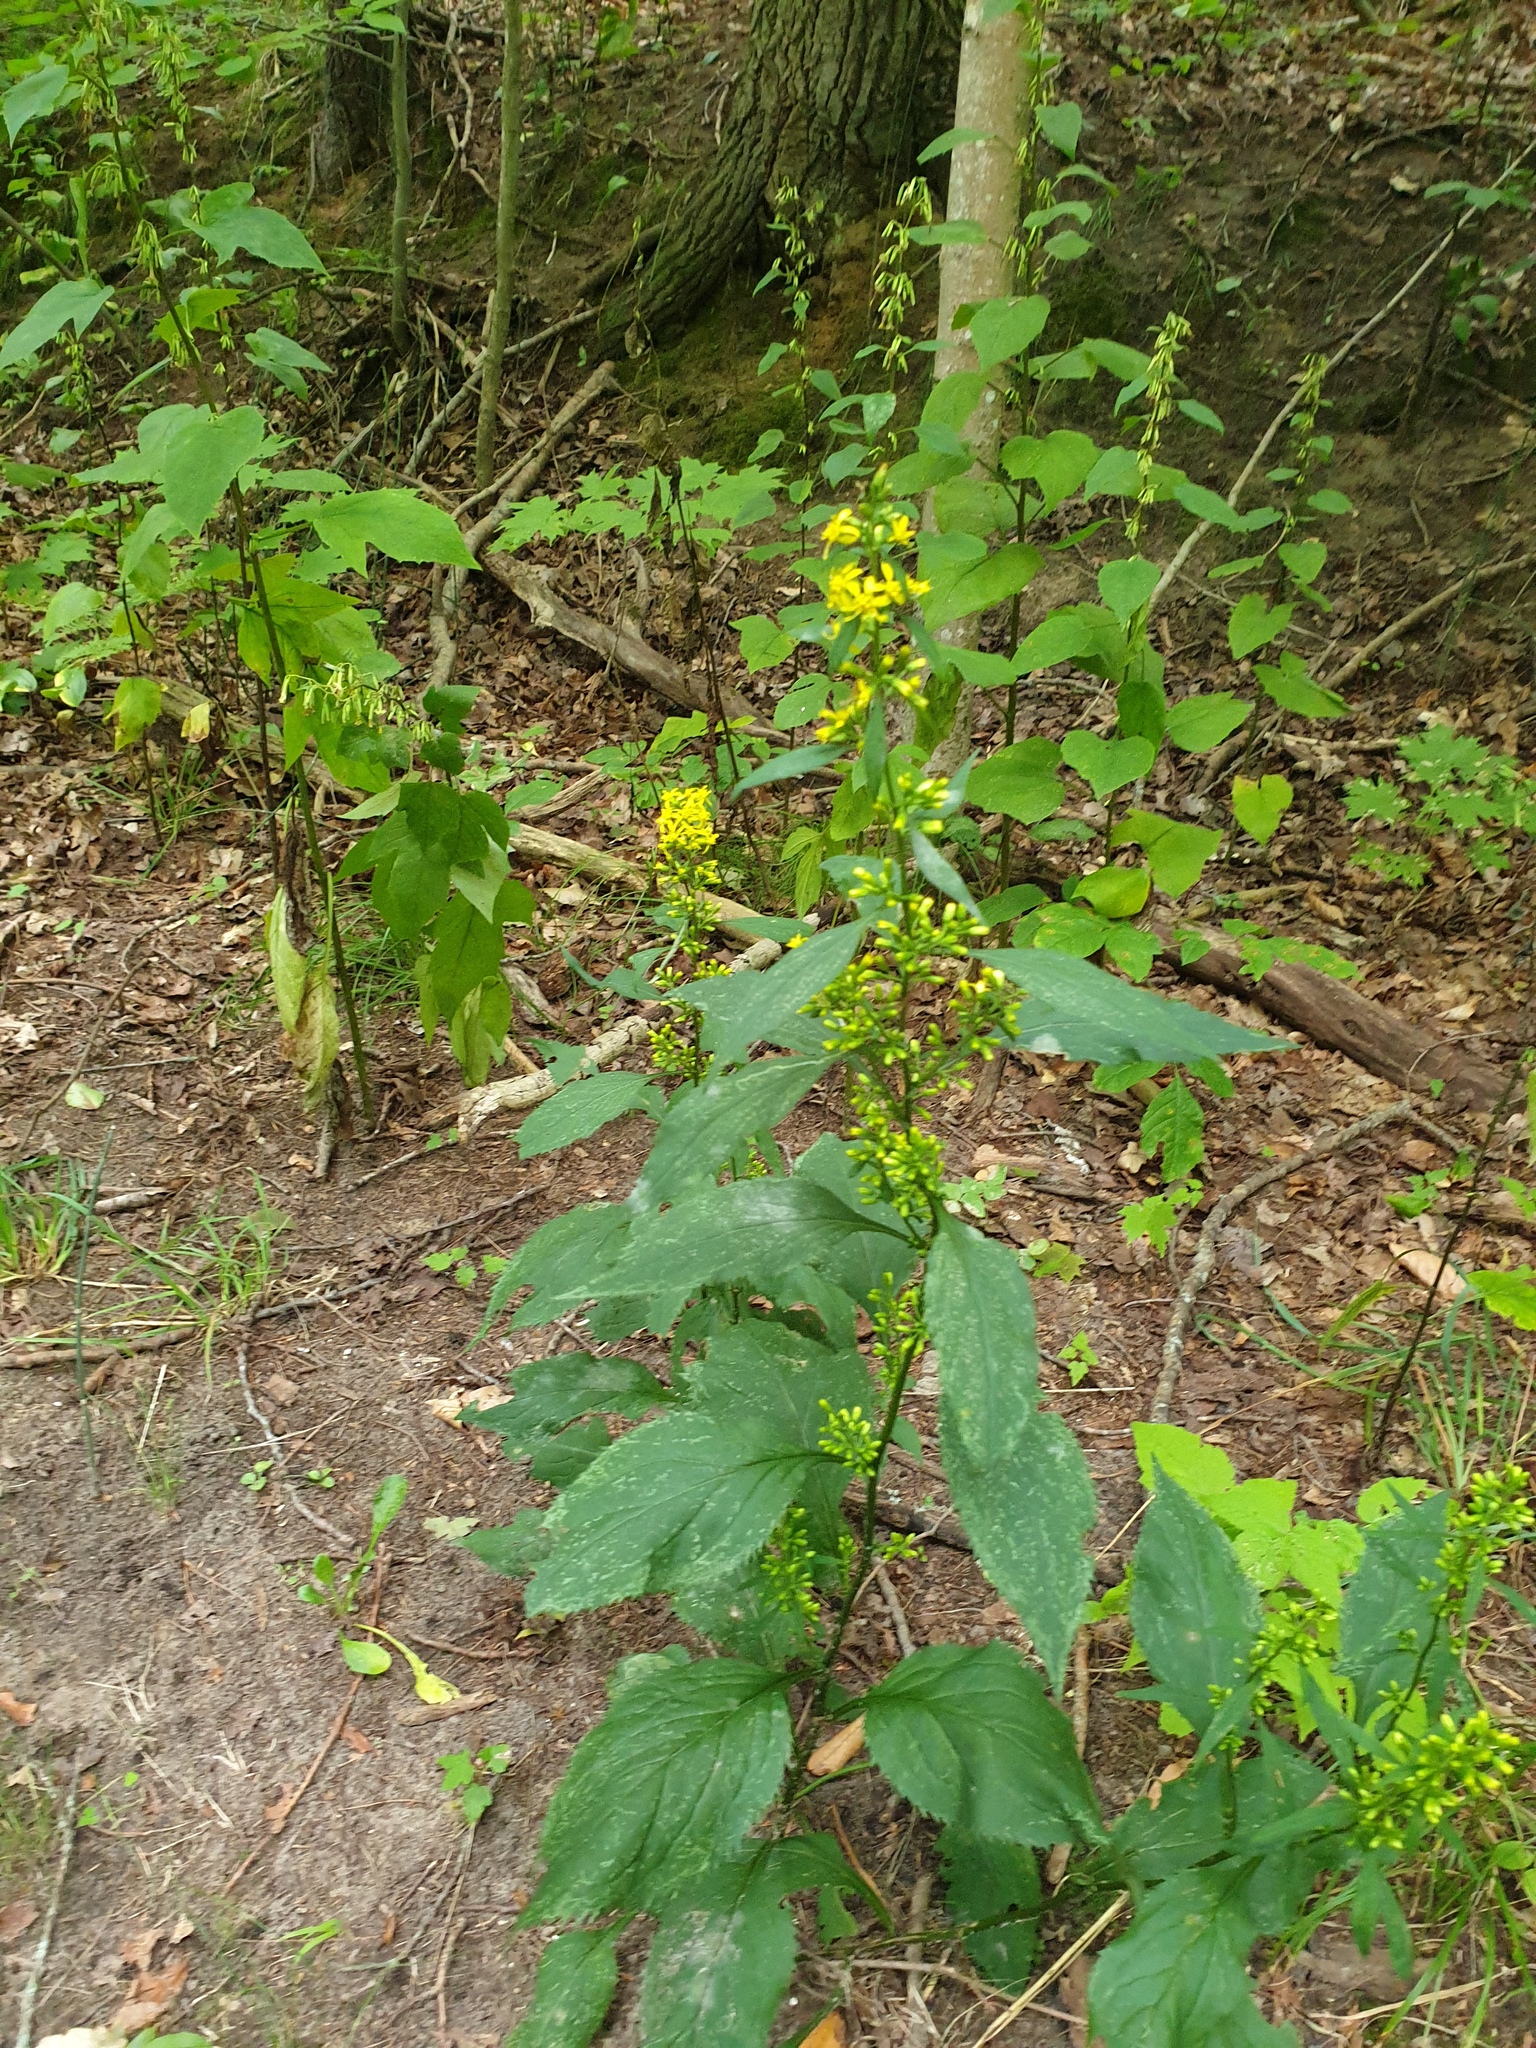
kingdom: Plantae
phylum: Tracheophyta
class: Magnoliopsida
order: Asterales
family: Asteraceae
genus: Solidago
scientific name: Solidago flexicaulis
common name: Zig-zag goldenrod
